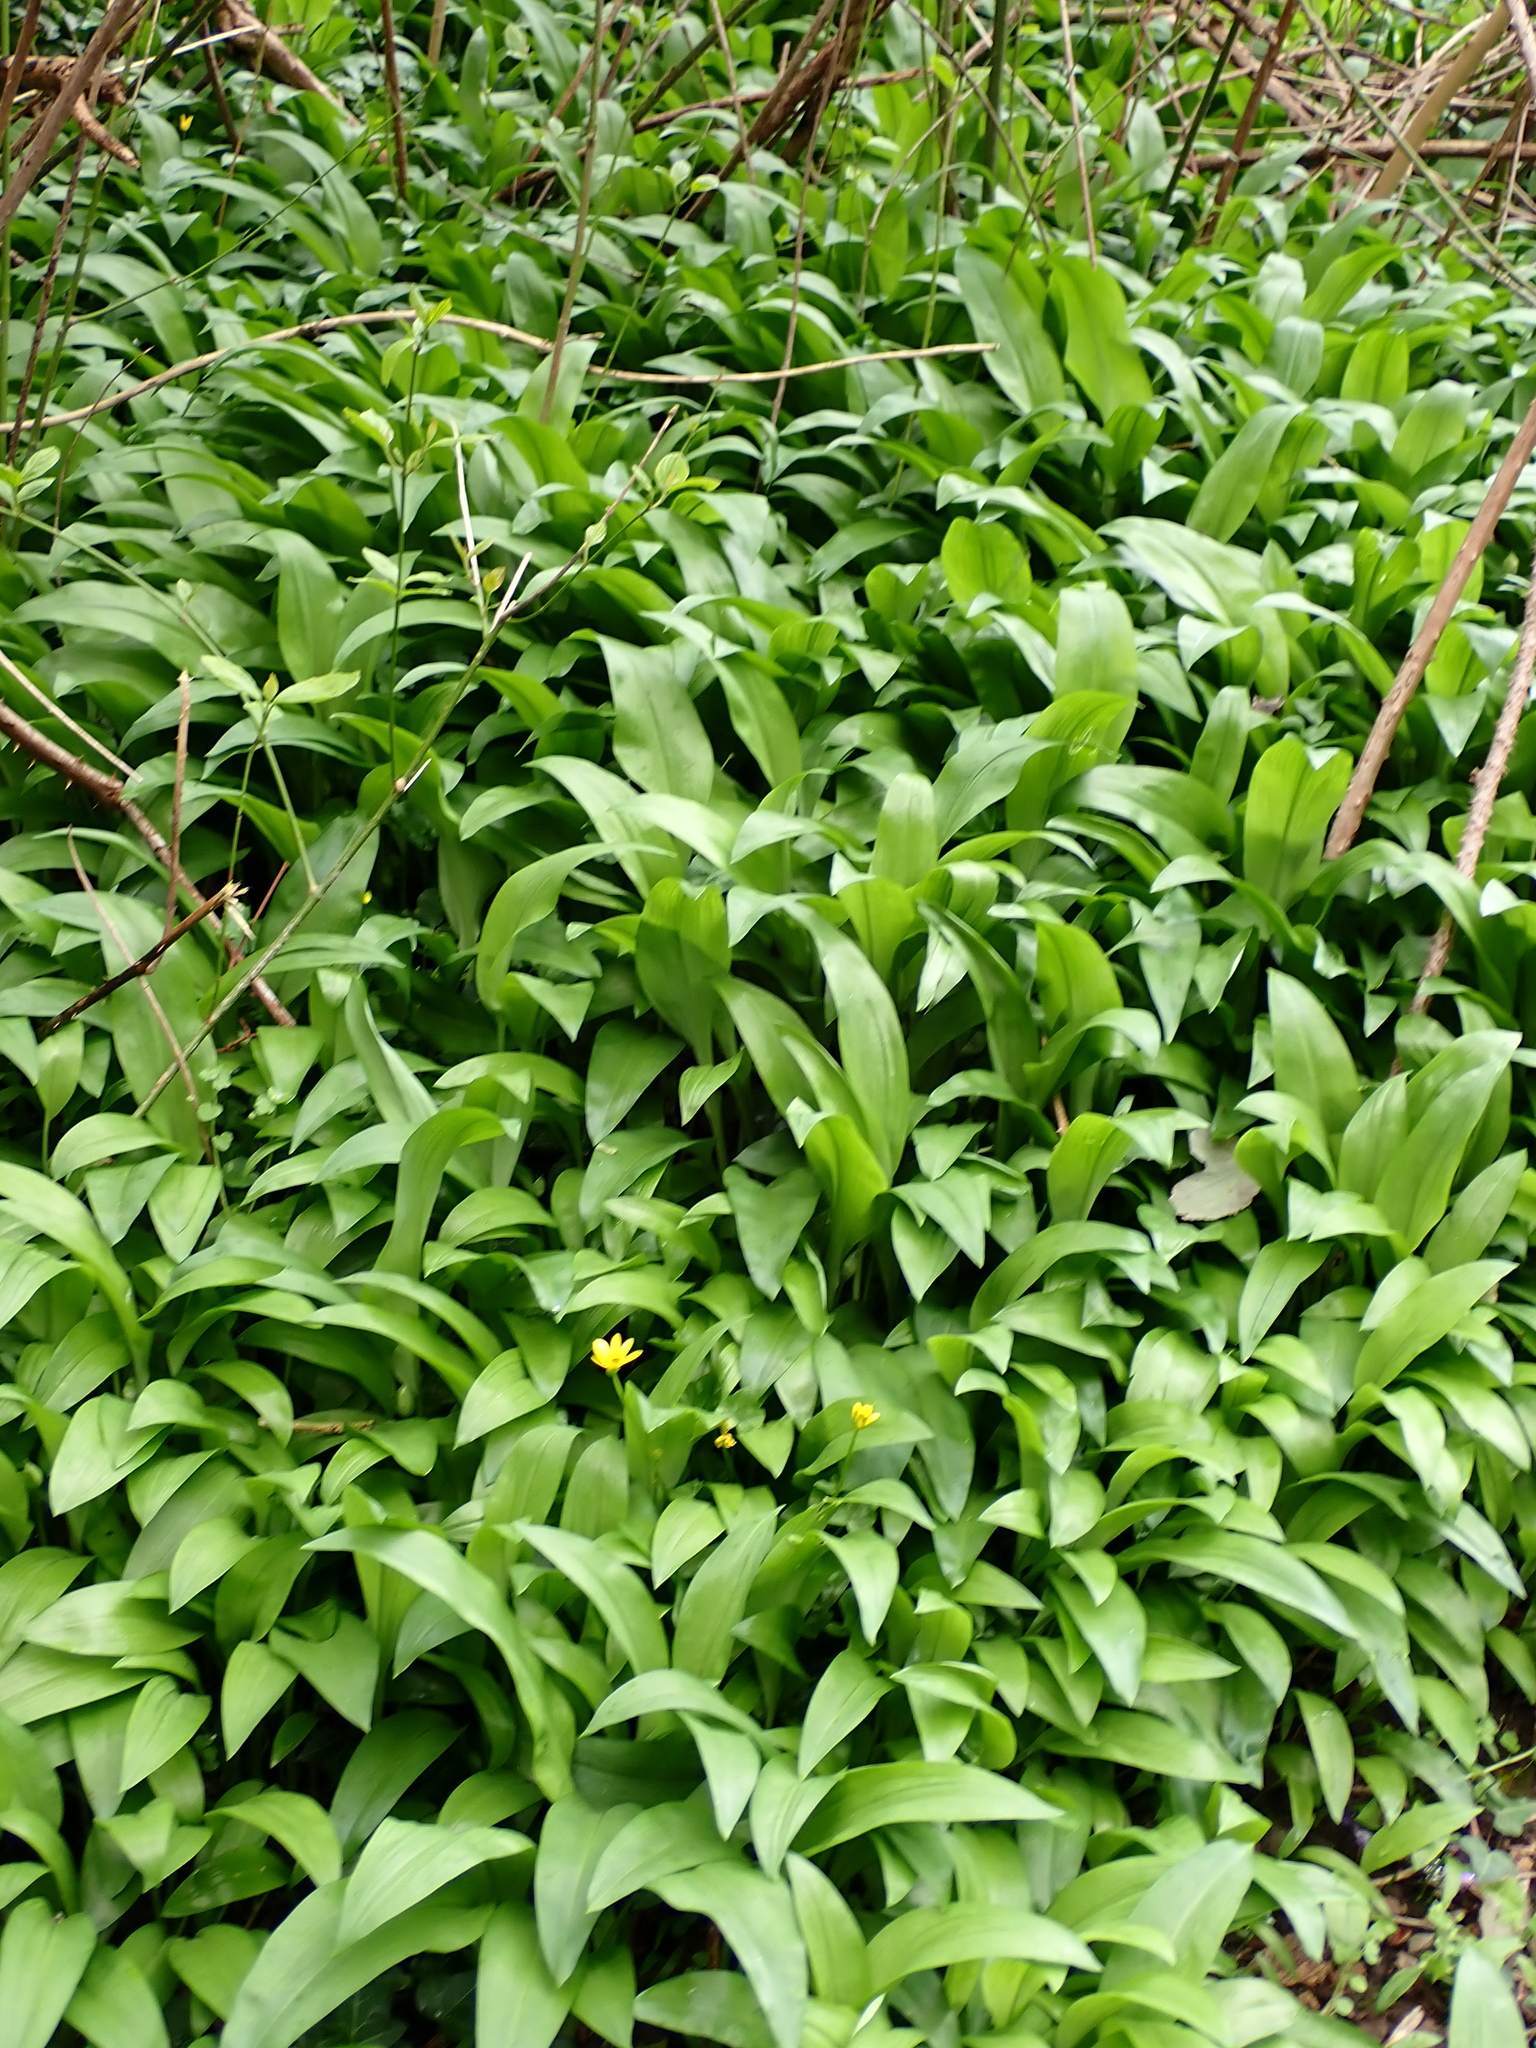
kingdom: Plantae
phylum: Tracheophyta
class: Liliopsida
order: Asparagales
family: Amaryllidaceae
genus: Allium
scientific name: Allium ursinum
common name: Ramsons
